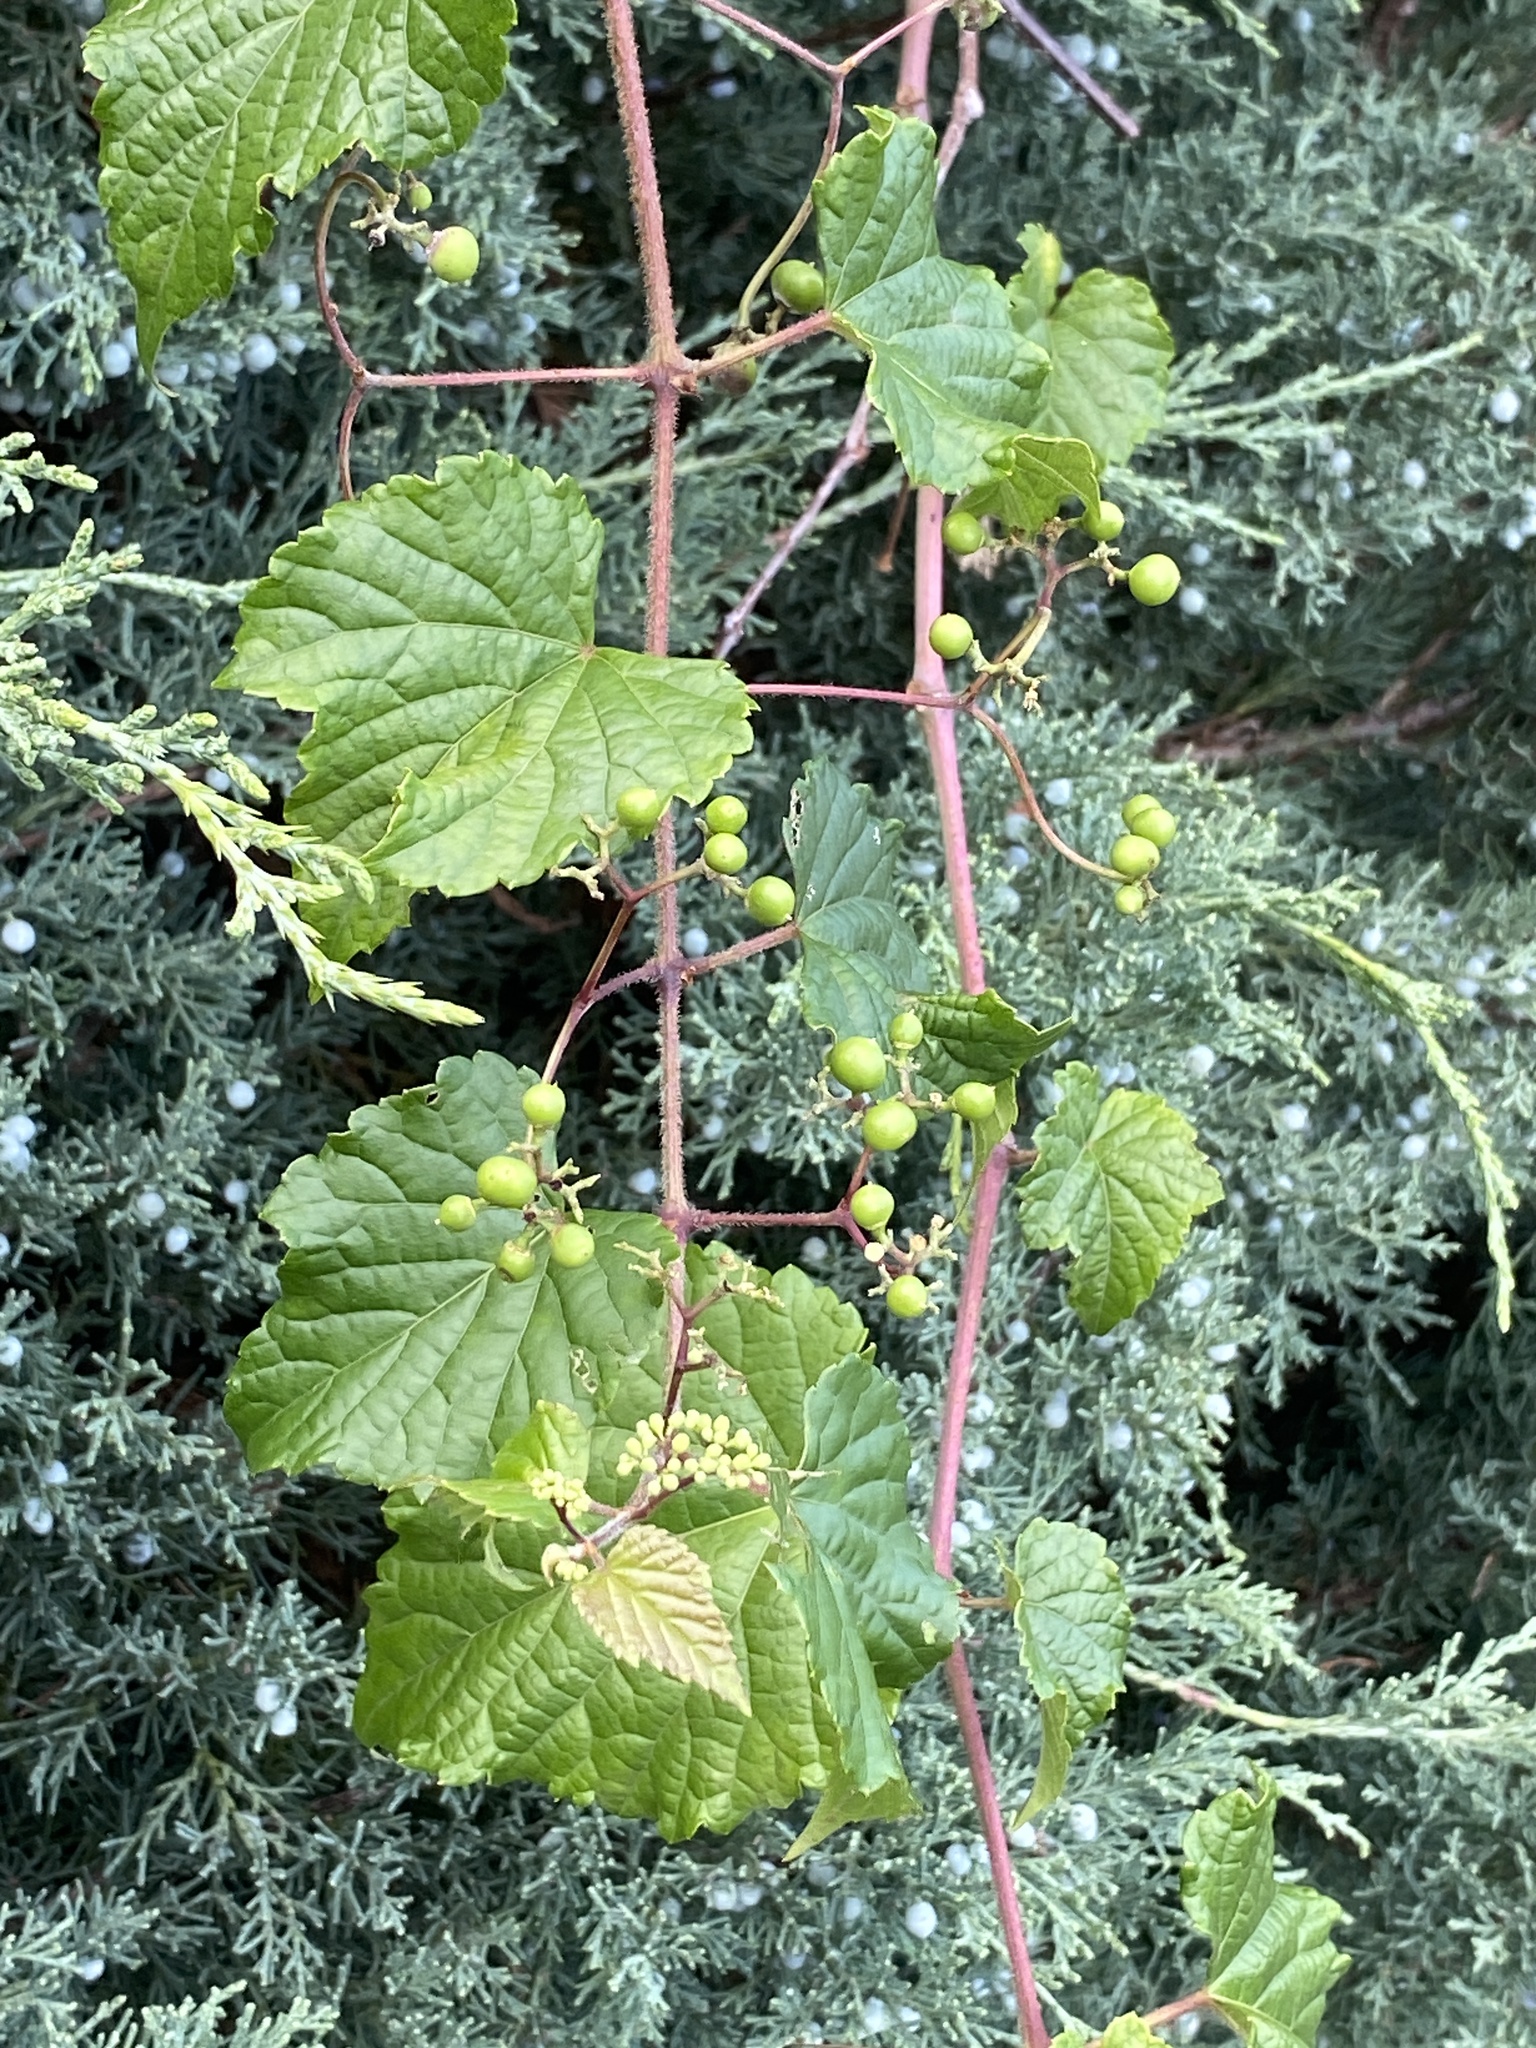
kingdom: Plantae
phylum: Tracheophyta
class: Magnoliopsida
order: Vitales
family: Vitaceae
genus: Ampelopsis
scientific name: Ampelopsis glandulosa
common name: Amur peppervine
